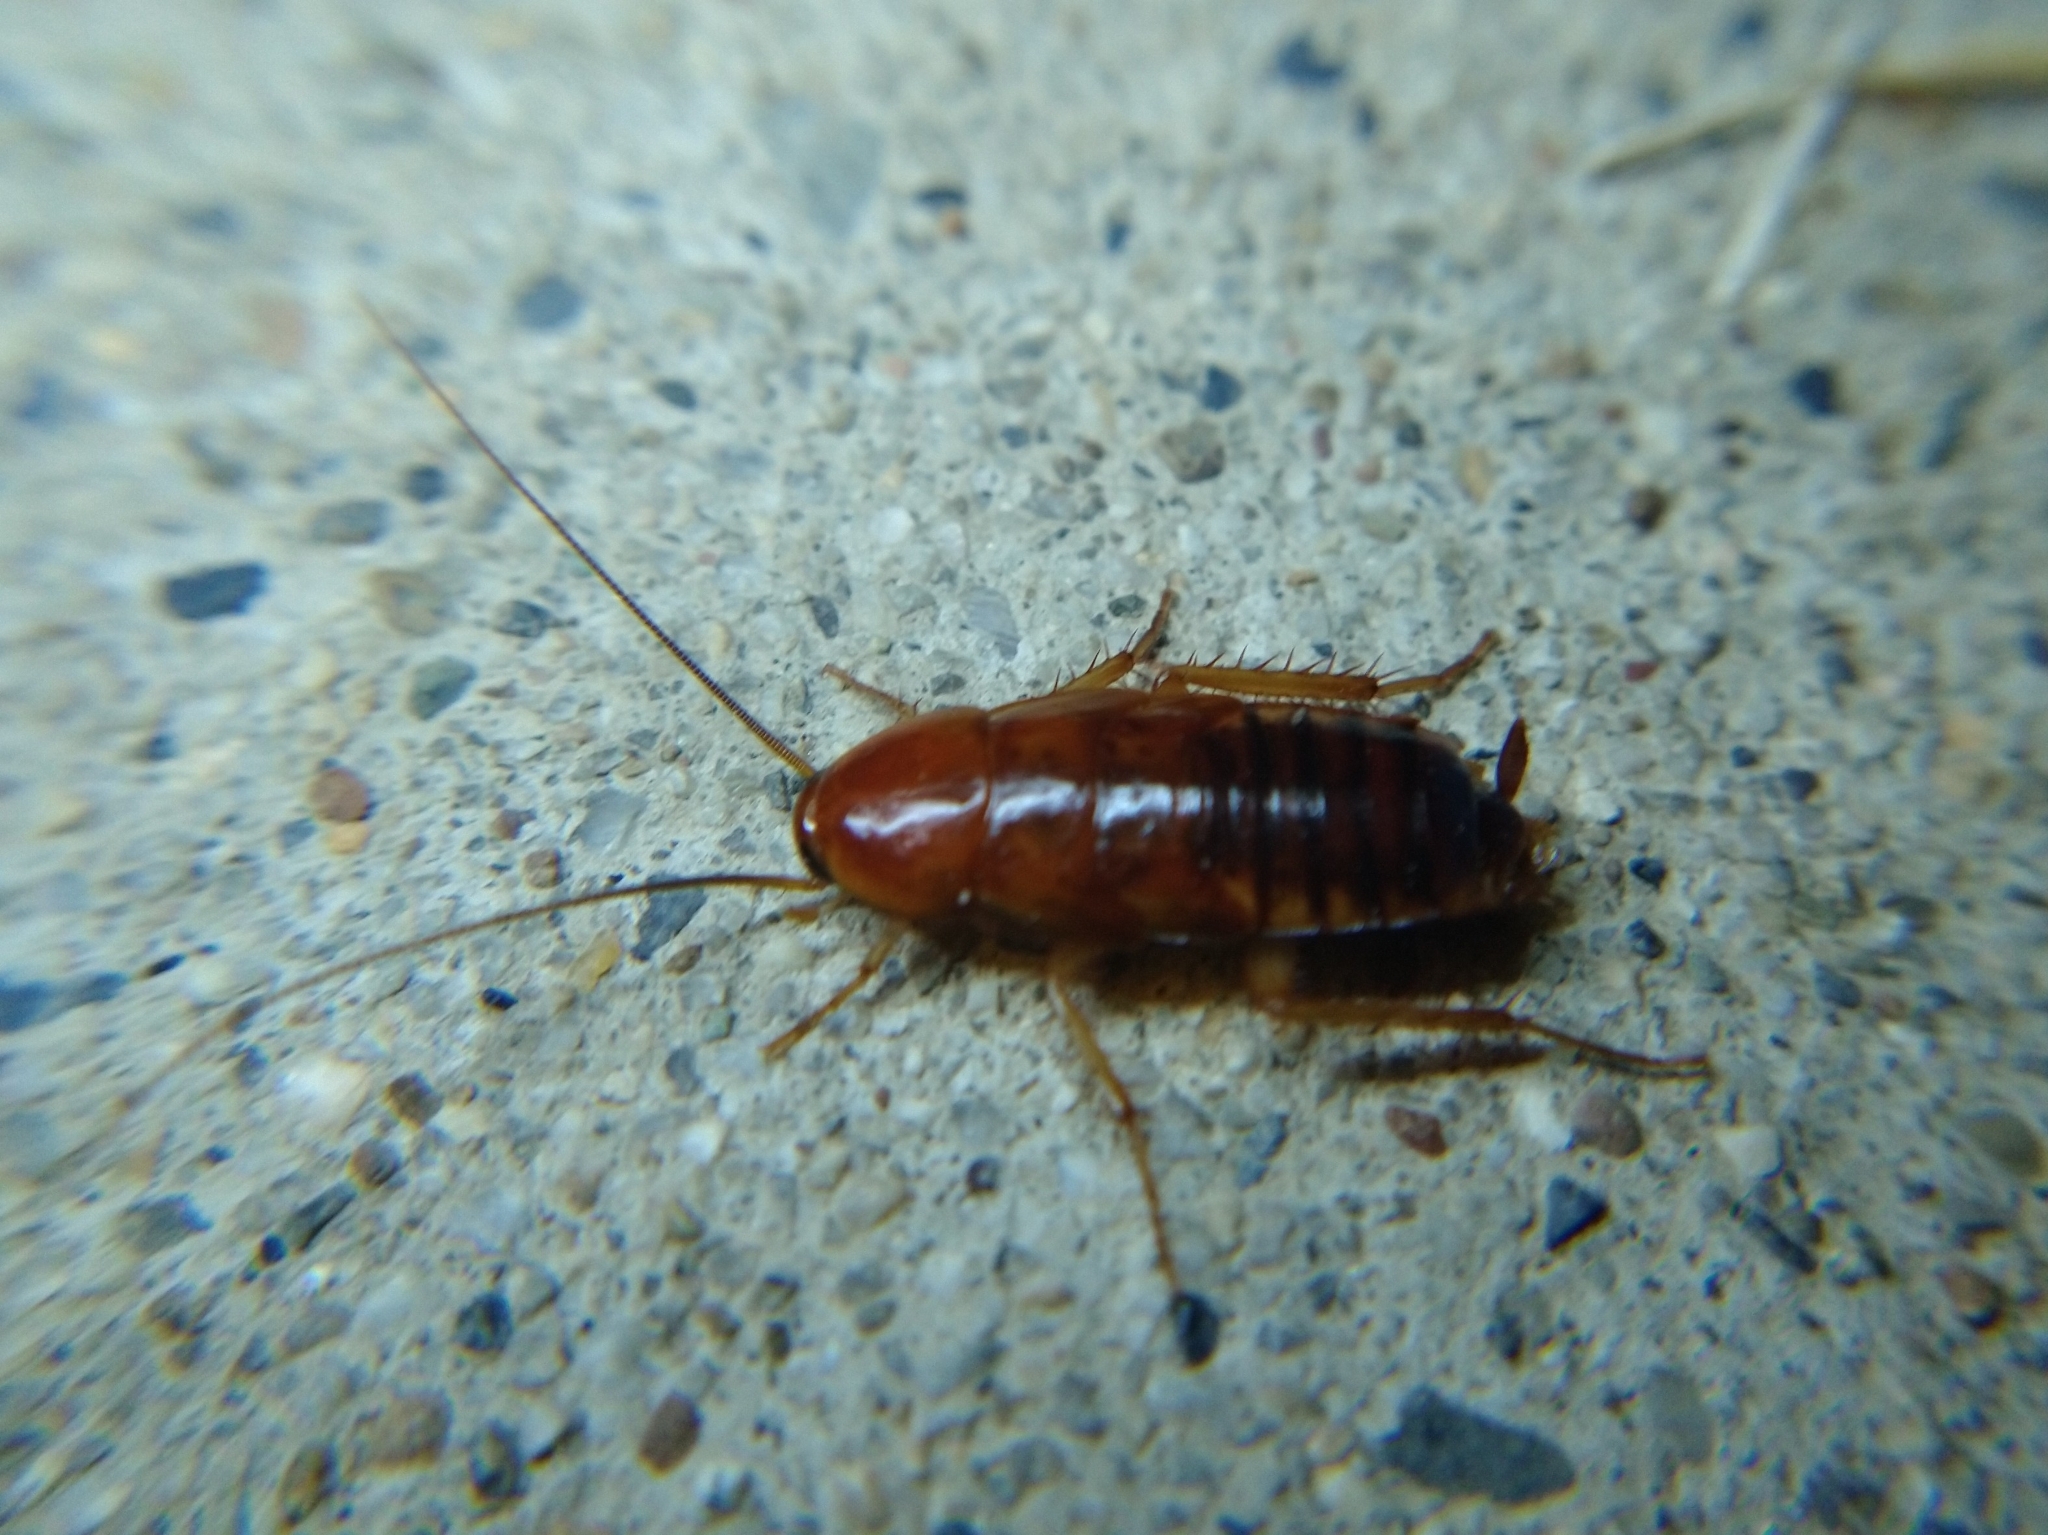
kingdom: Animalia
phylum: Arthropoda
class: Insecta
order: Blattodea
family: Blattidae
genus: Periplaneta
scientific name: Periplaneta lateralis
